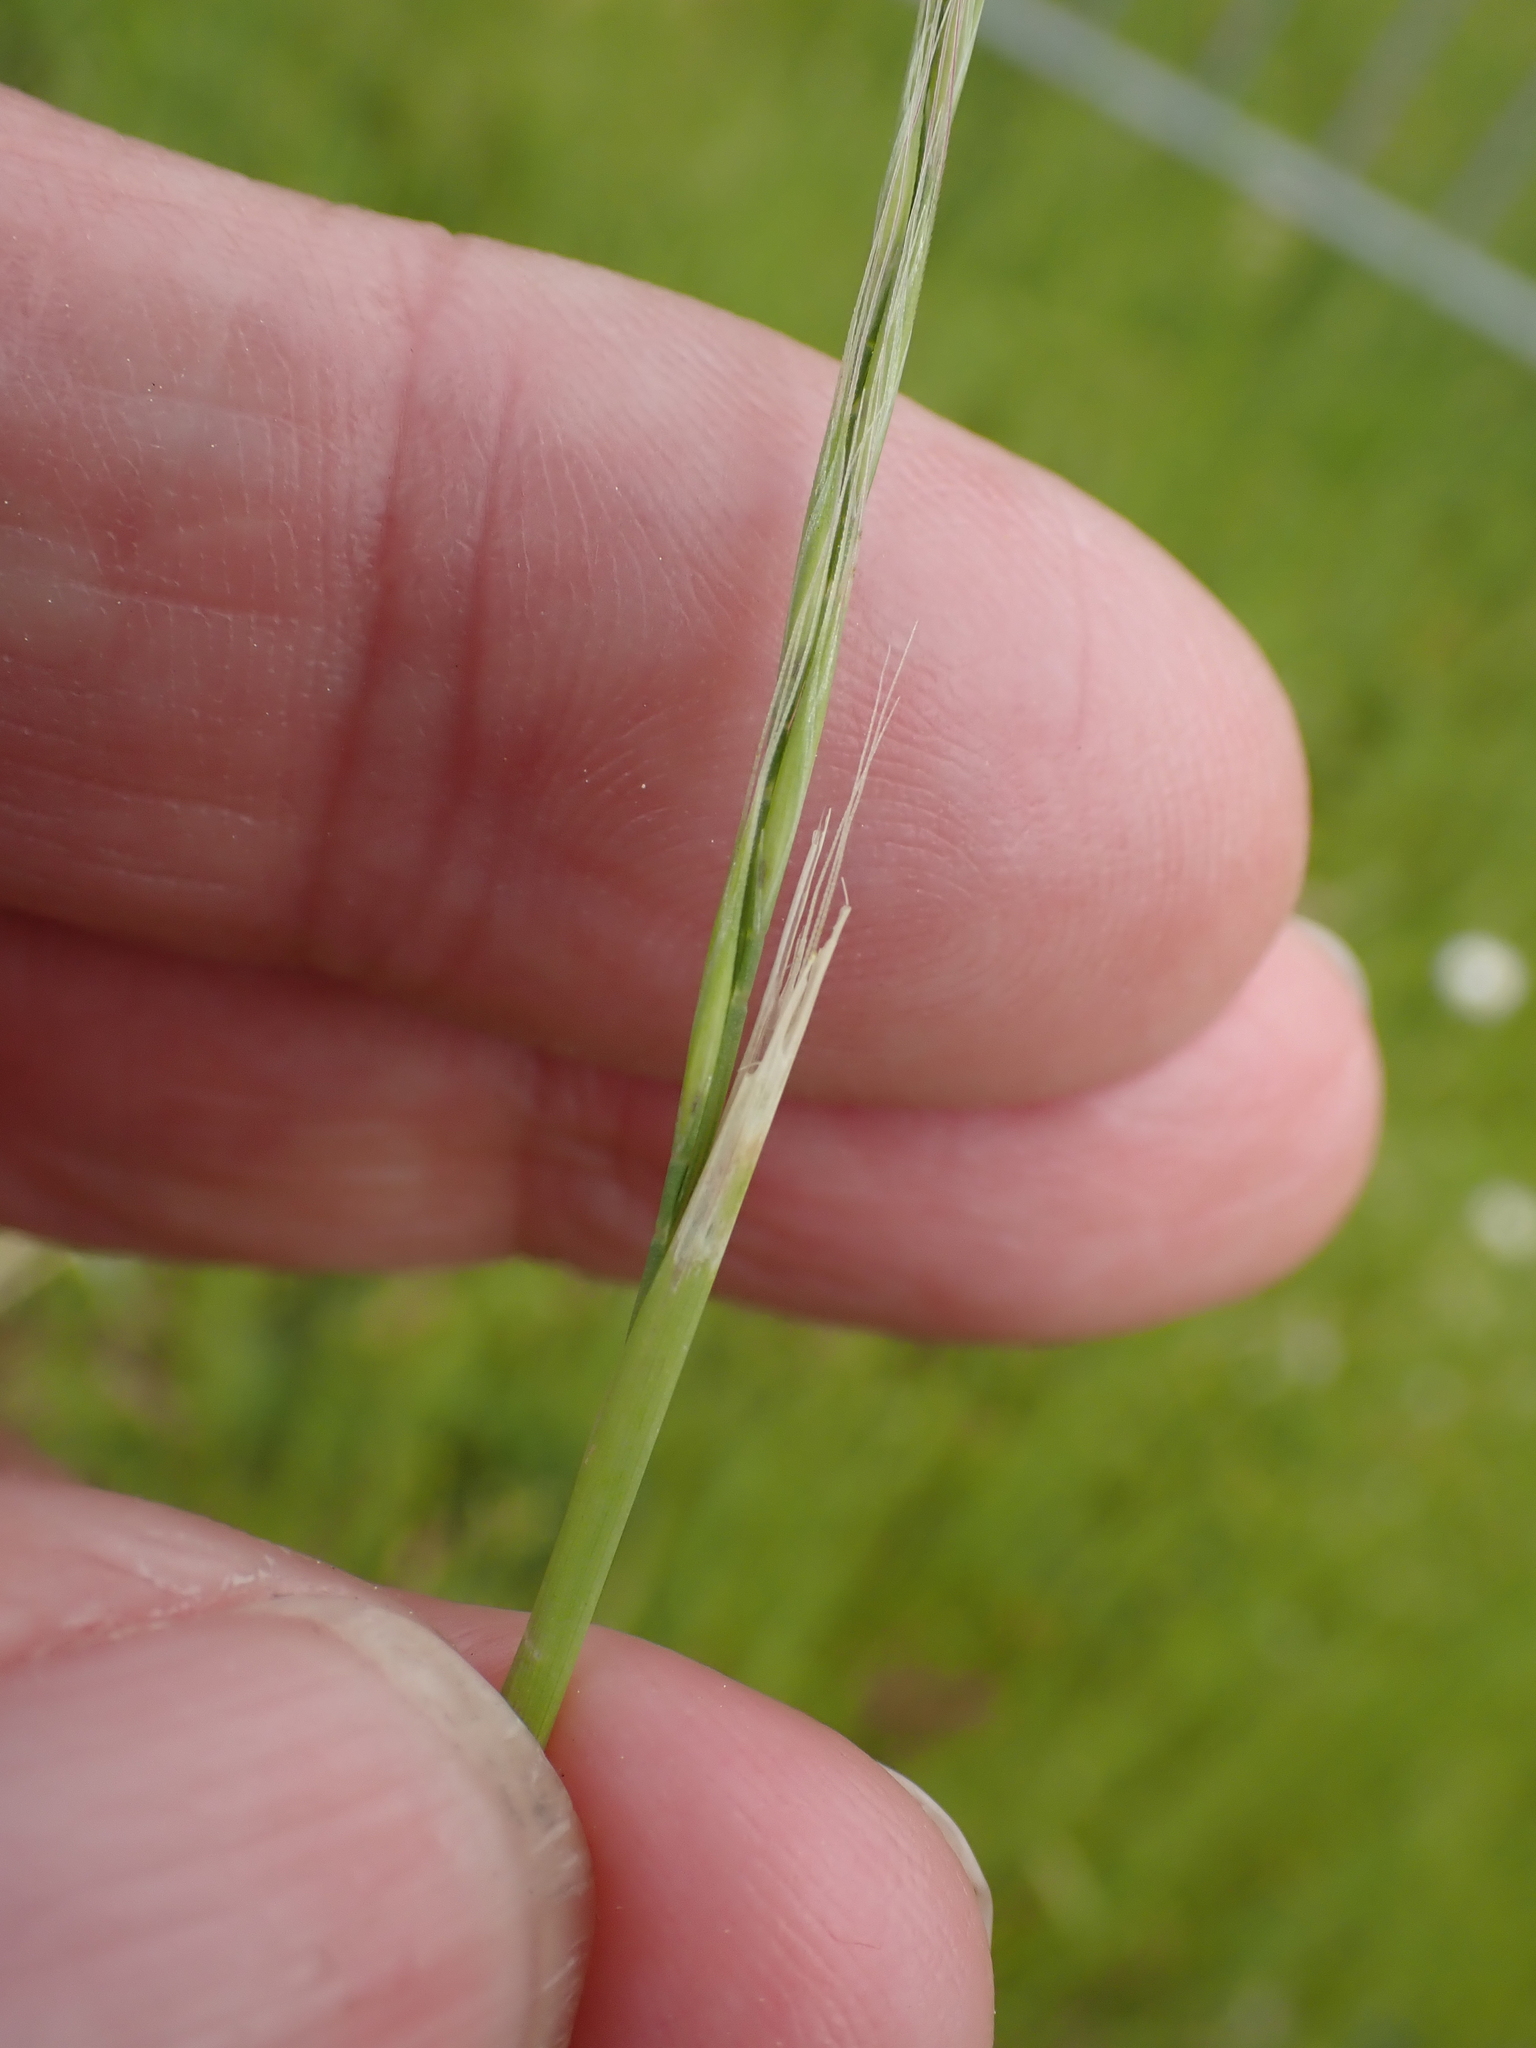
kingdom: Plantae
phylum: Tracheophyta
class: Liliopsida
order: Poales
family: Poaceae
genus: Festuca
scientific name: Festuca myuros
